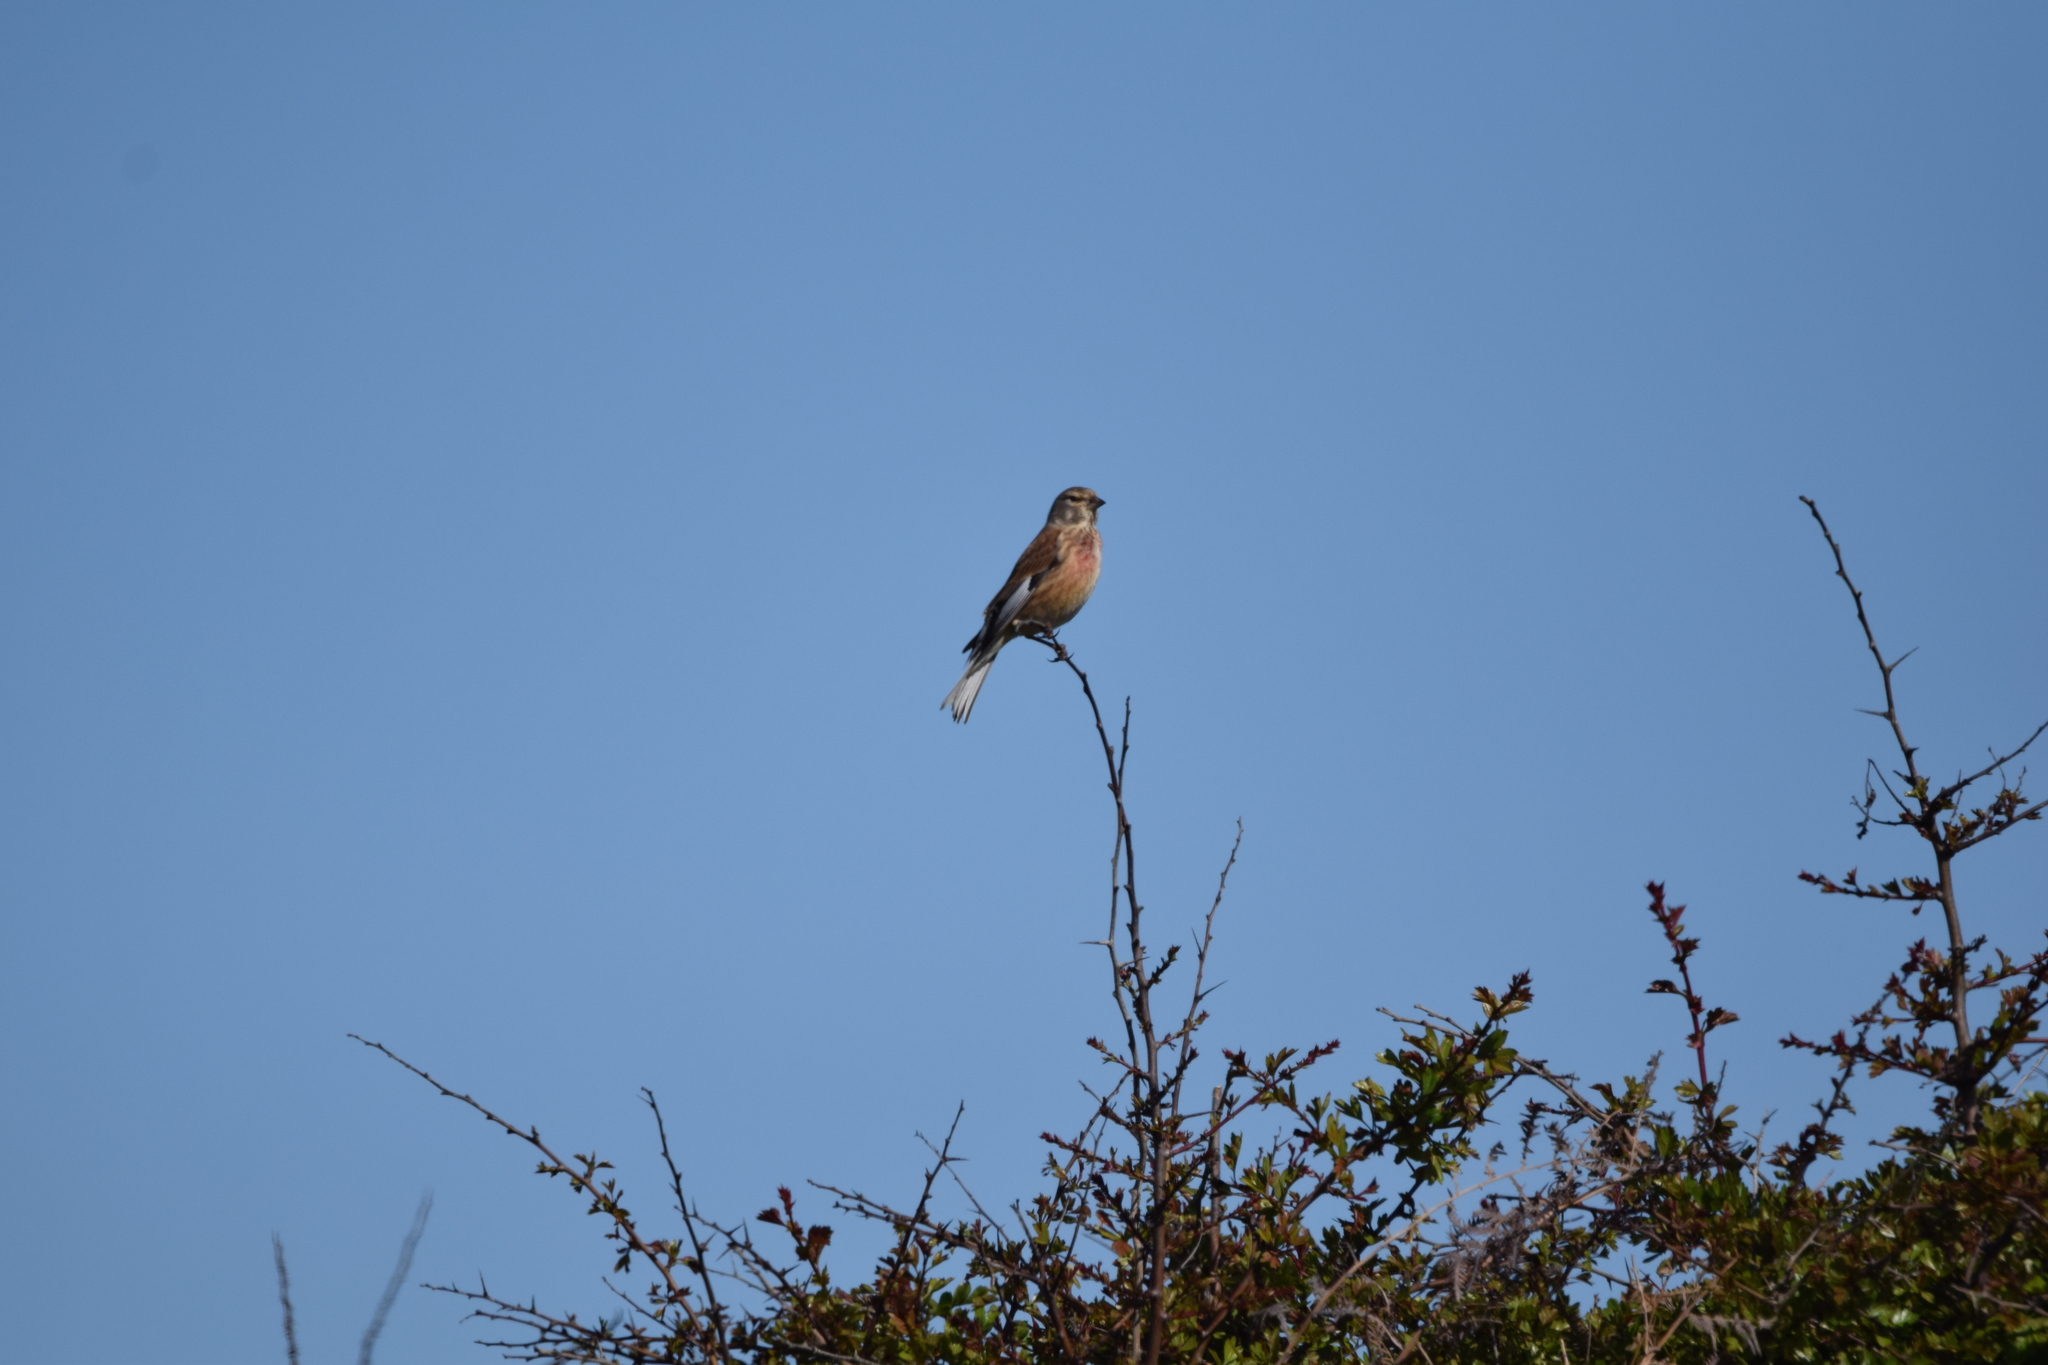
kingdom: Animalia
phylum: Chordata
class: Aves
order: Passeriformes
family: Fringillidae
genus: Linaria
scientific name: Linaria cannabina
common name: Common linnet
